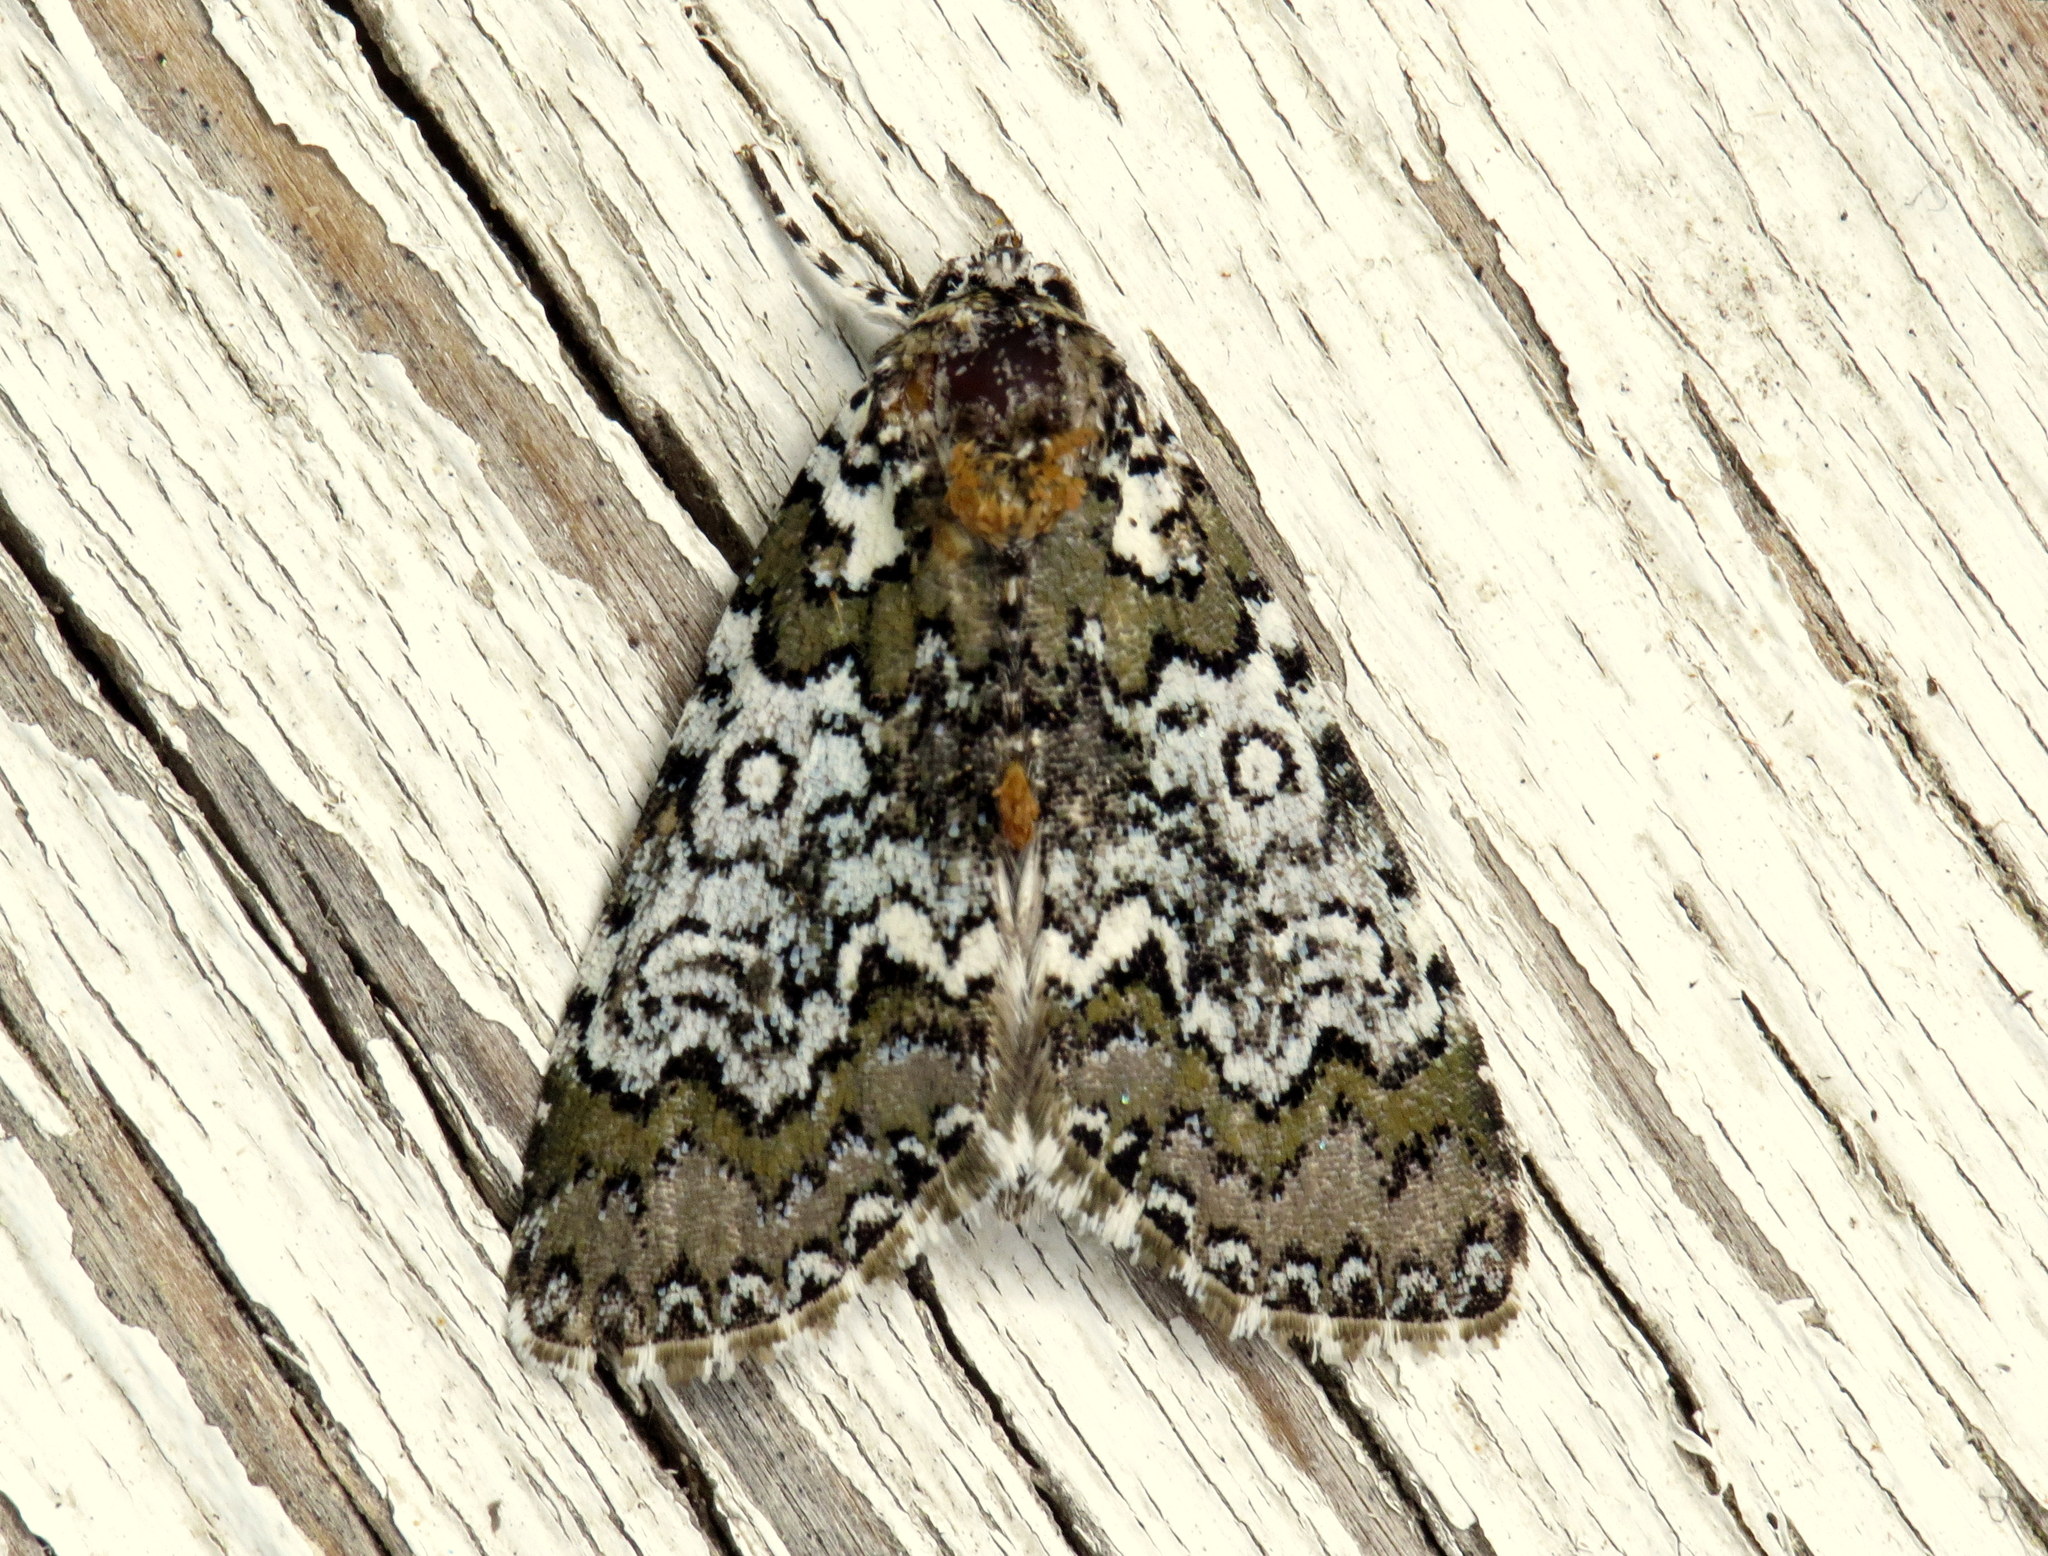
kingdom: Animalia
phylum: Arthropoda
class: Insecta
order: Lepidoptera
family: Noctuidae
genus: Cerma
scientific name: Cerma cora
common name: Bird dropping moth
